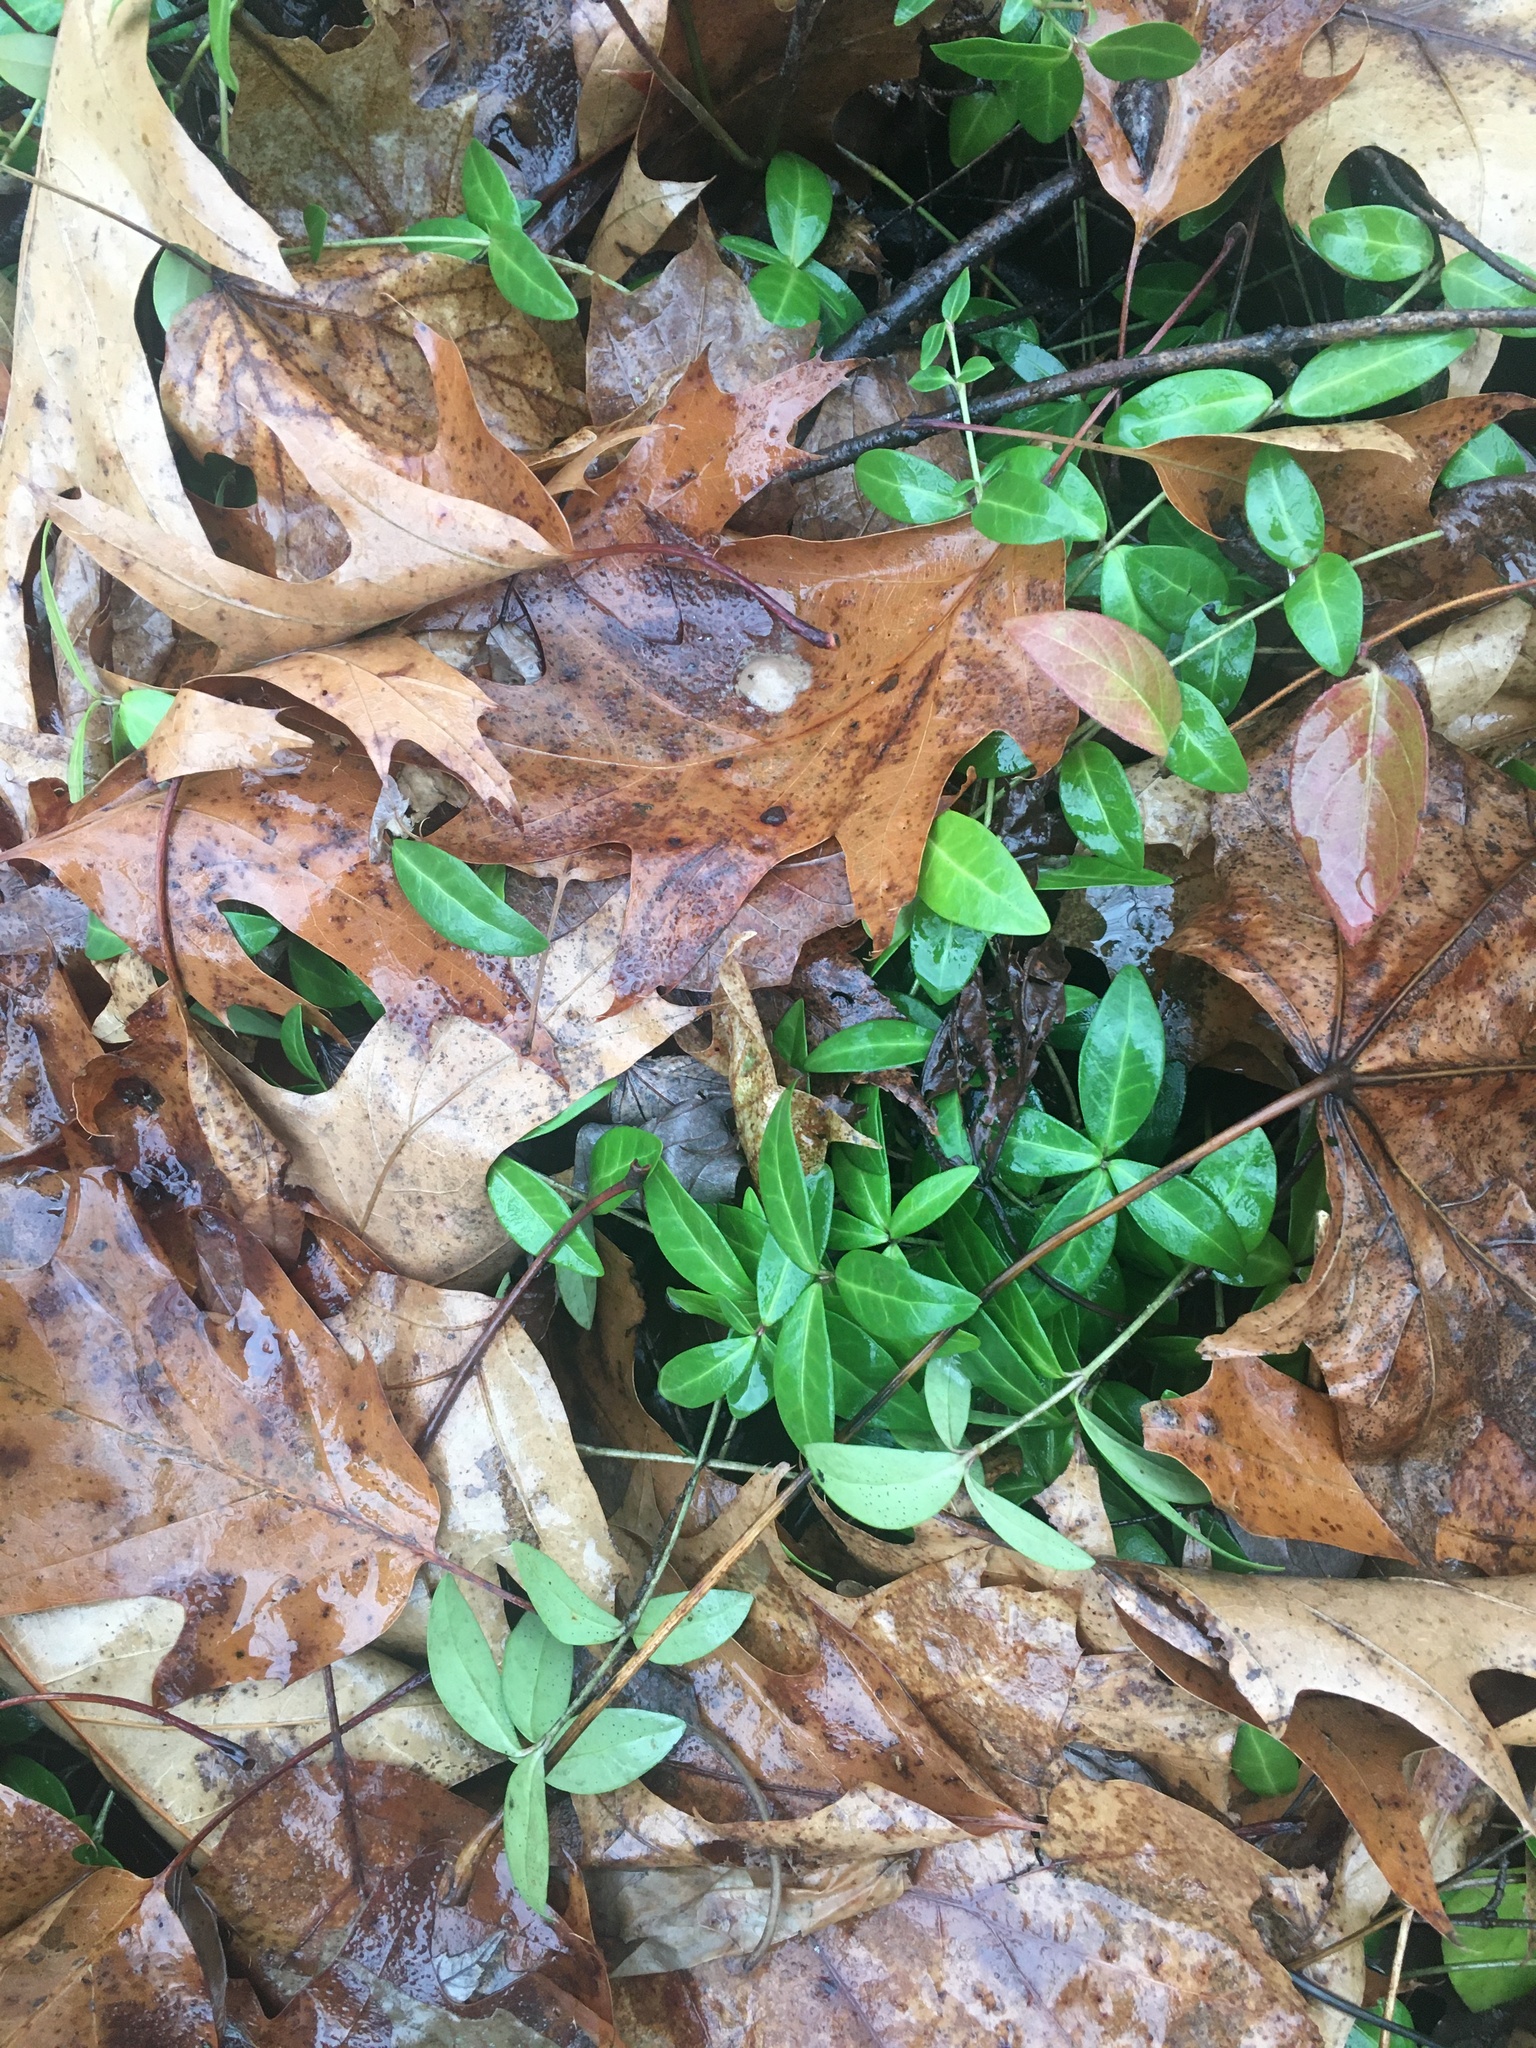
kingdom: Plantae
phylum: Tracheophyta
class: Magnoliopsida
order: Gentianales
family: Apocynaceae
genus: Vinca
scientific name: Vinca minor
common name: Lesser periwinkle
